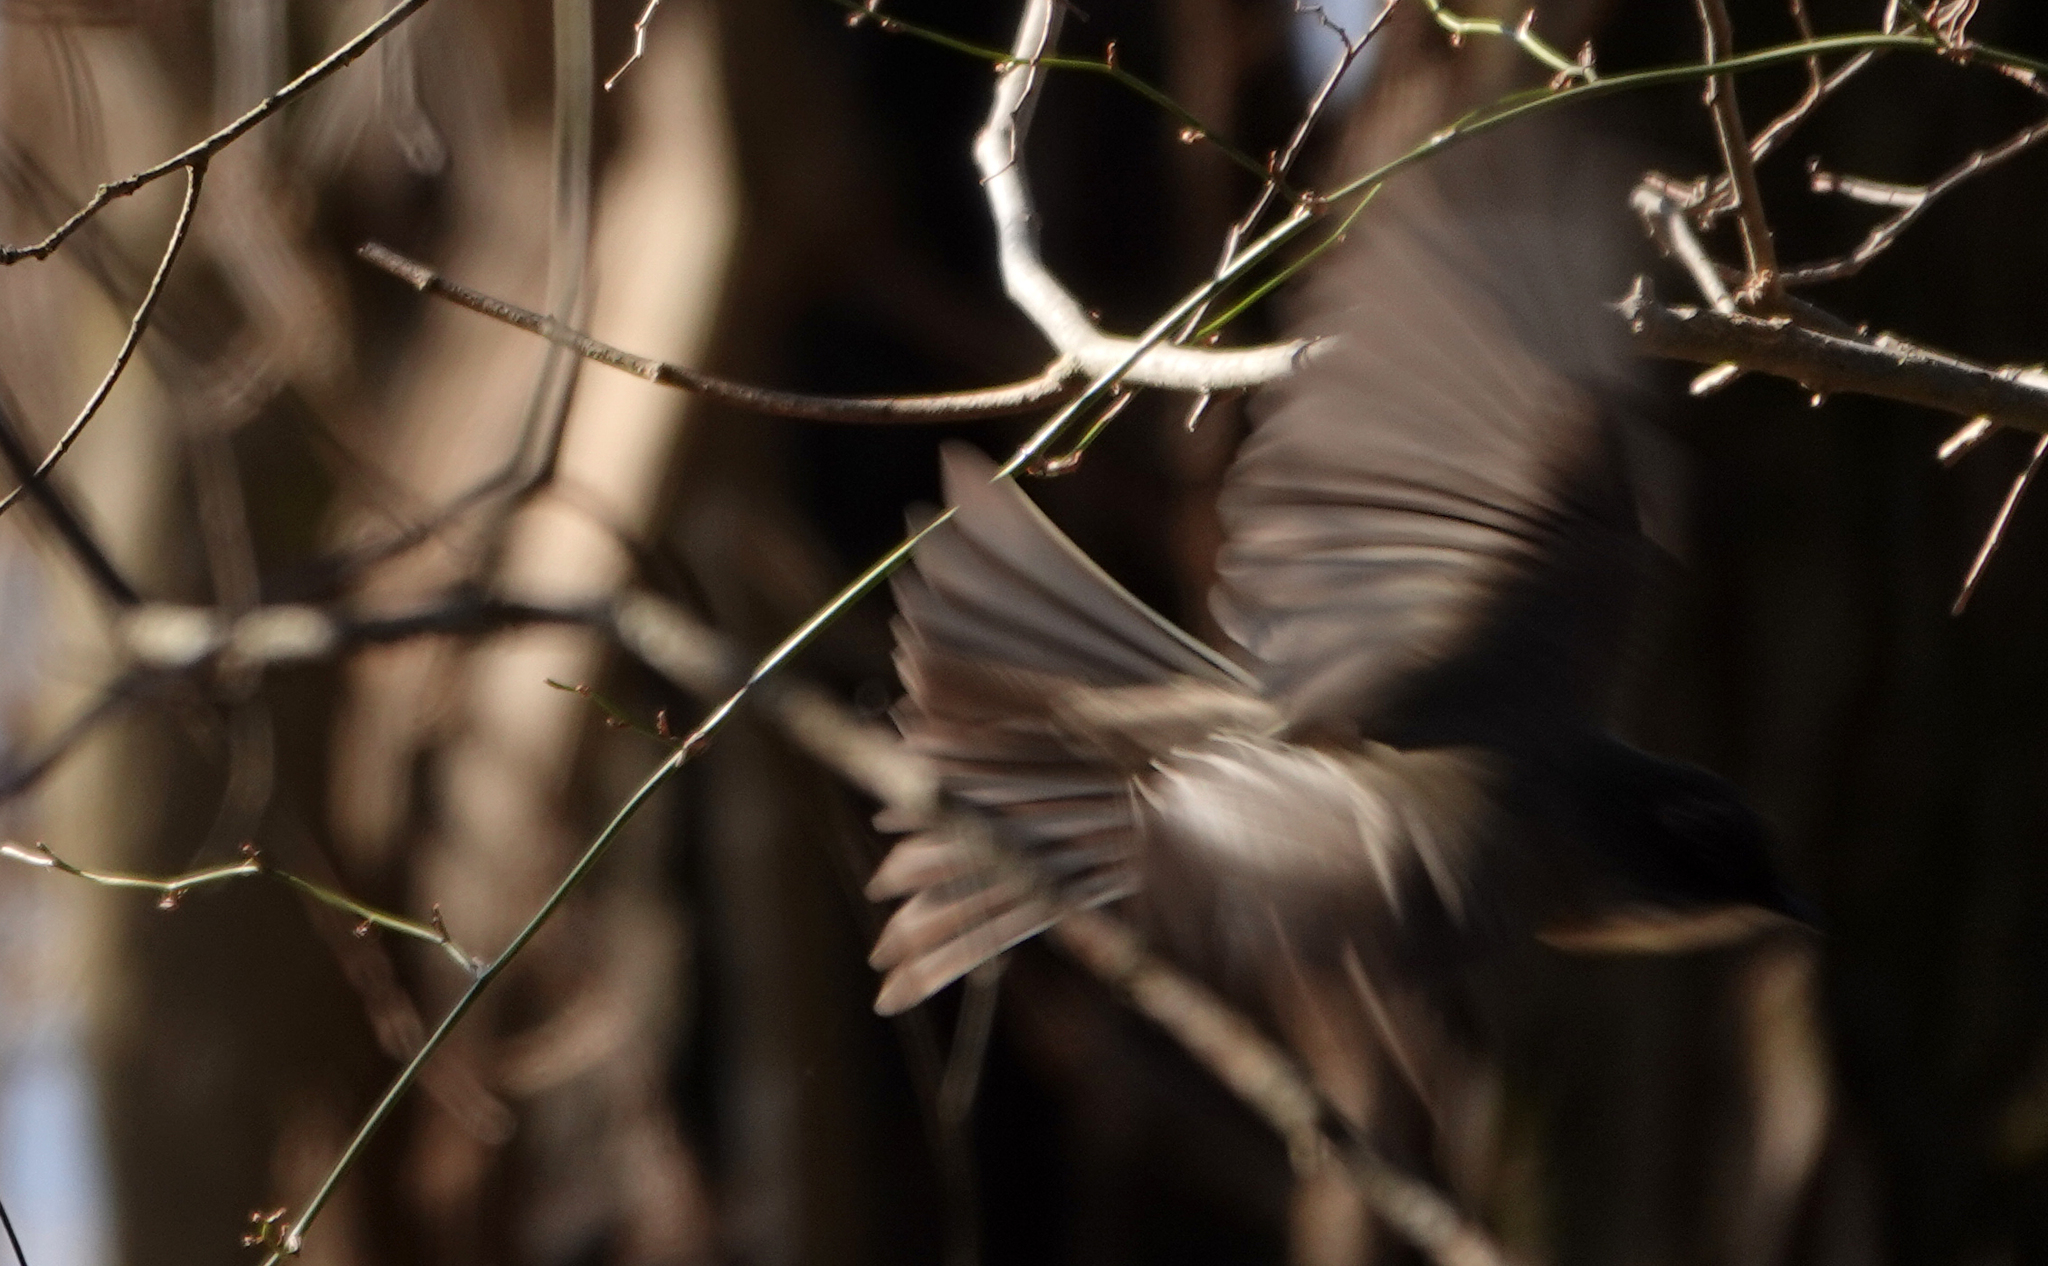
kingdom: Animalia
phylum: Chordata
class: Aves
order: Passeriformes
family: Tyrannidae
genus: Sayornis
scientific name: Sayornis phoebe
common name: Eastern phoebe
